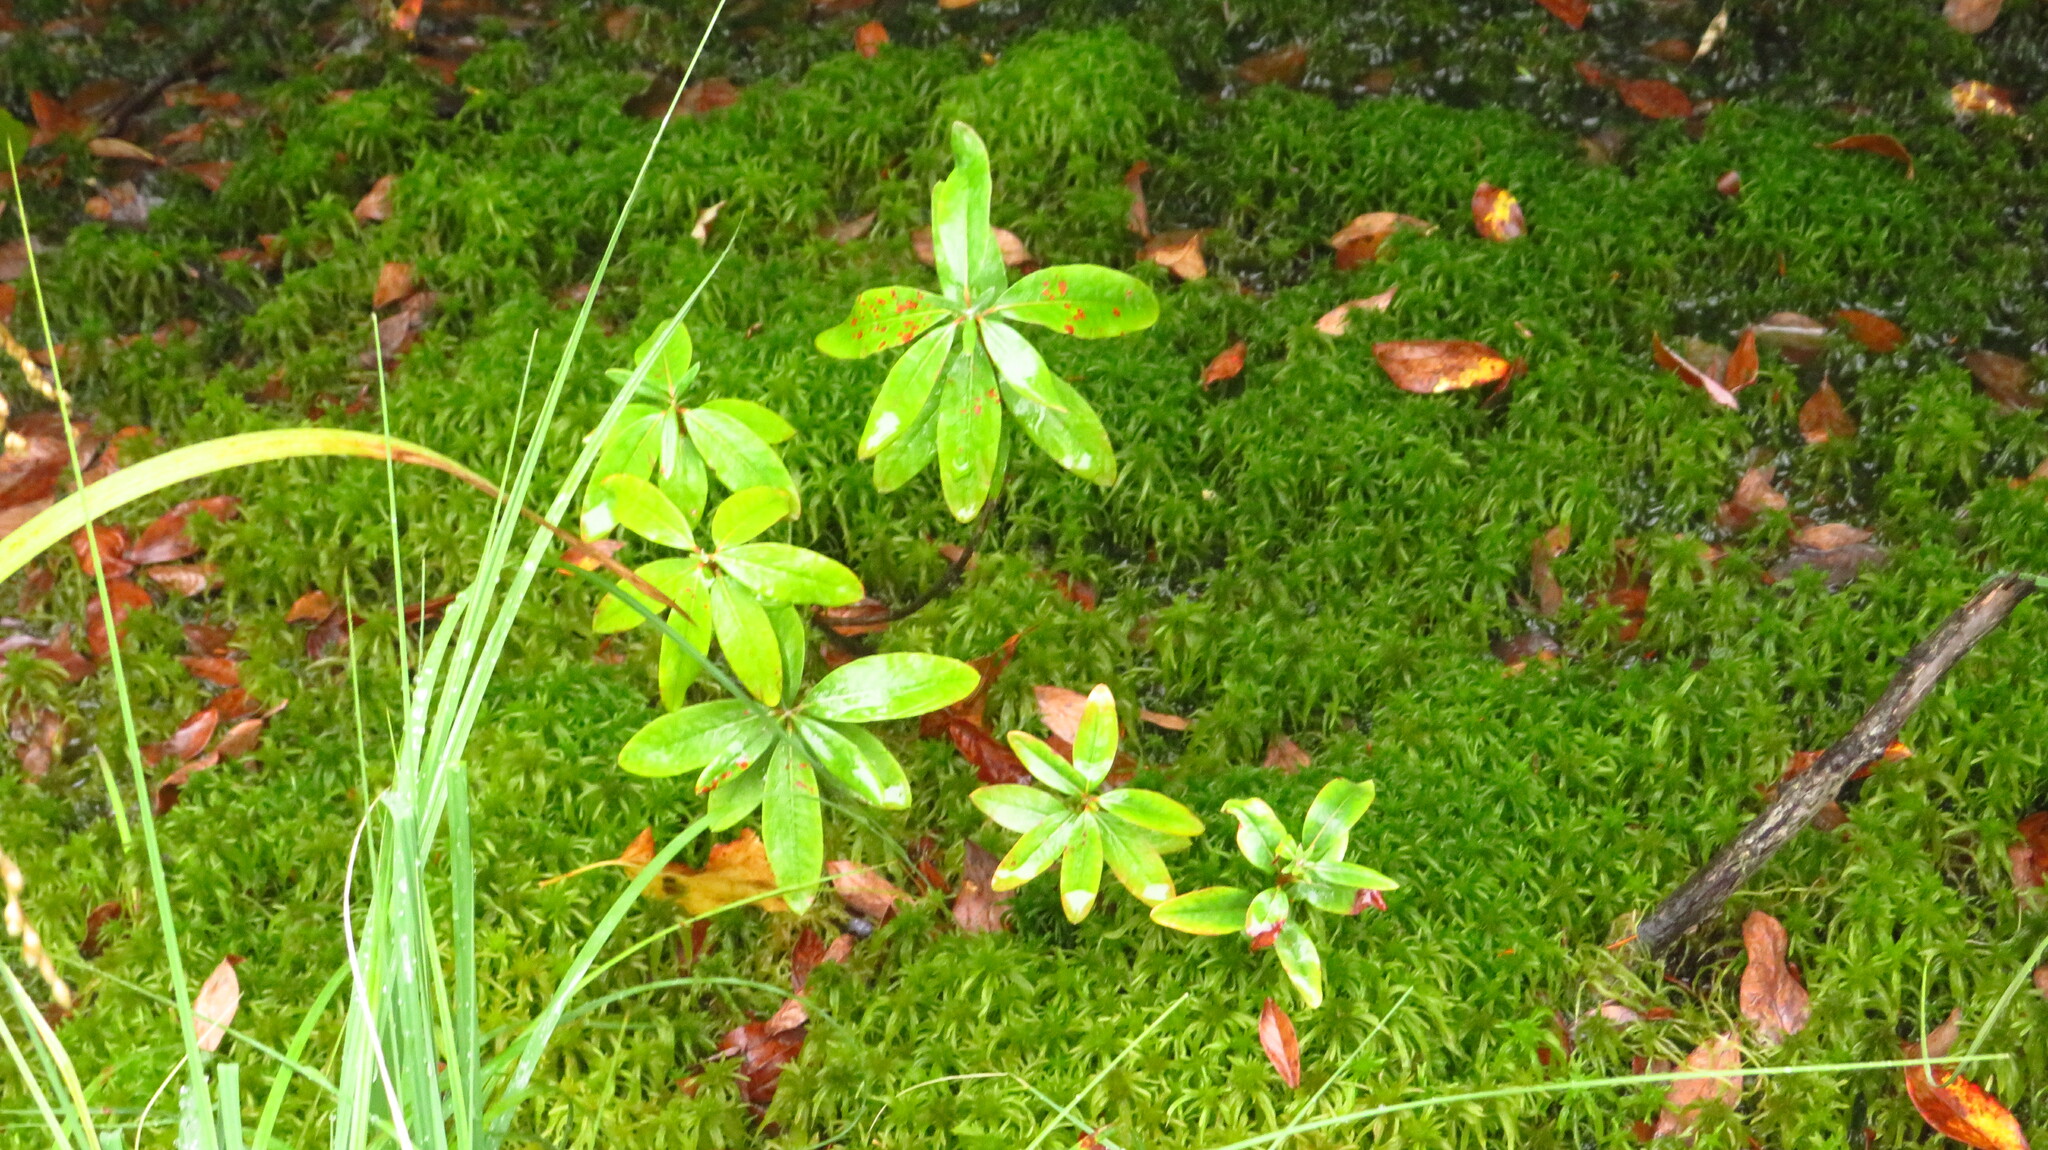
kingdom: Plantae
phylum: Tracheophyta
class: Magnoliopsida
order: Ericales
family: Ericaceae
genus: Kalmia
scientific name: Kalmia angustifolia
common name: Sheep-laurel
